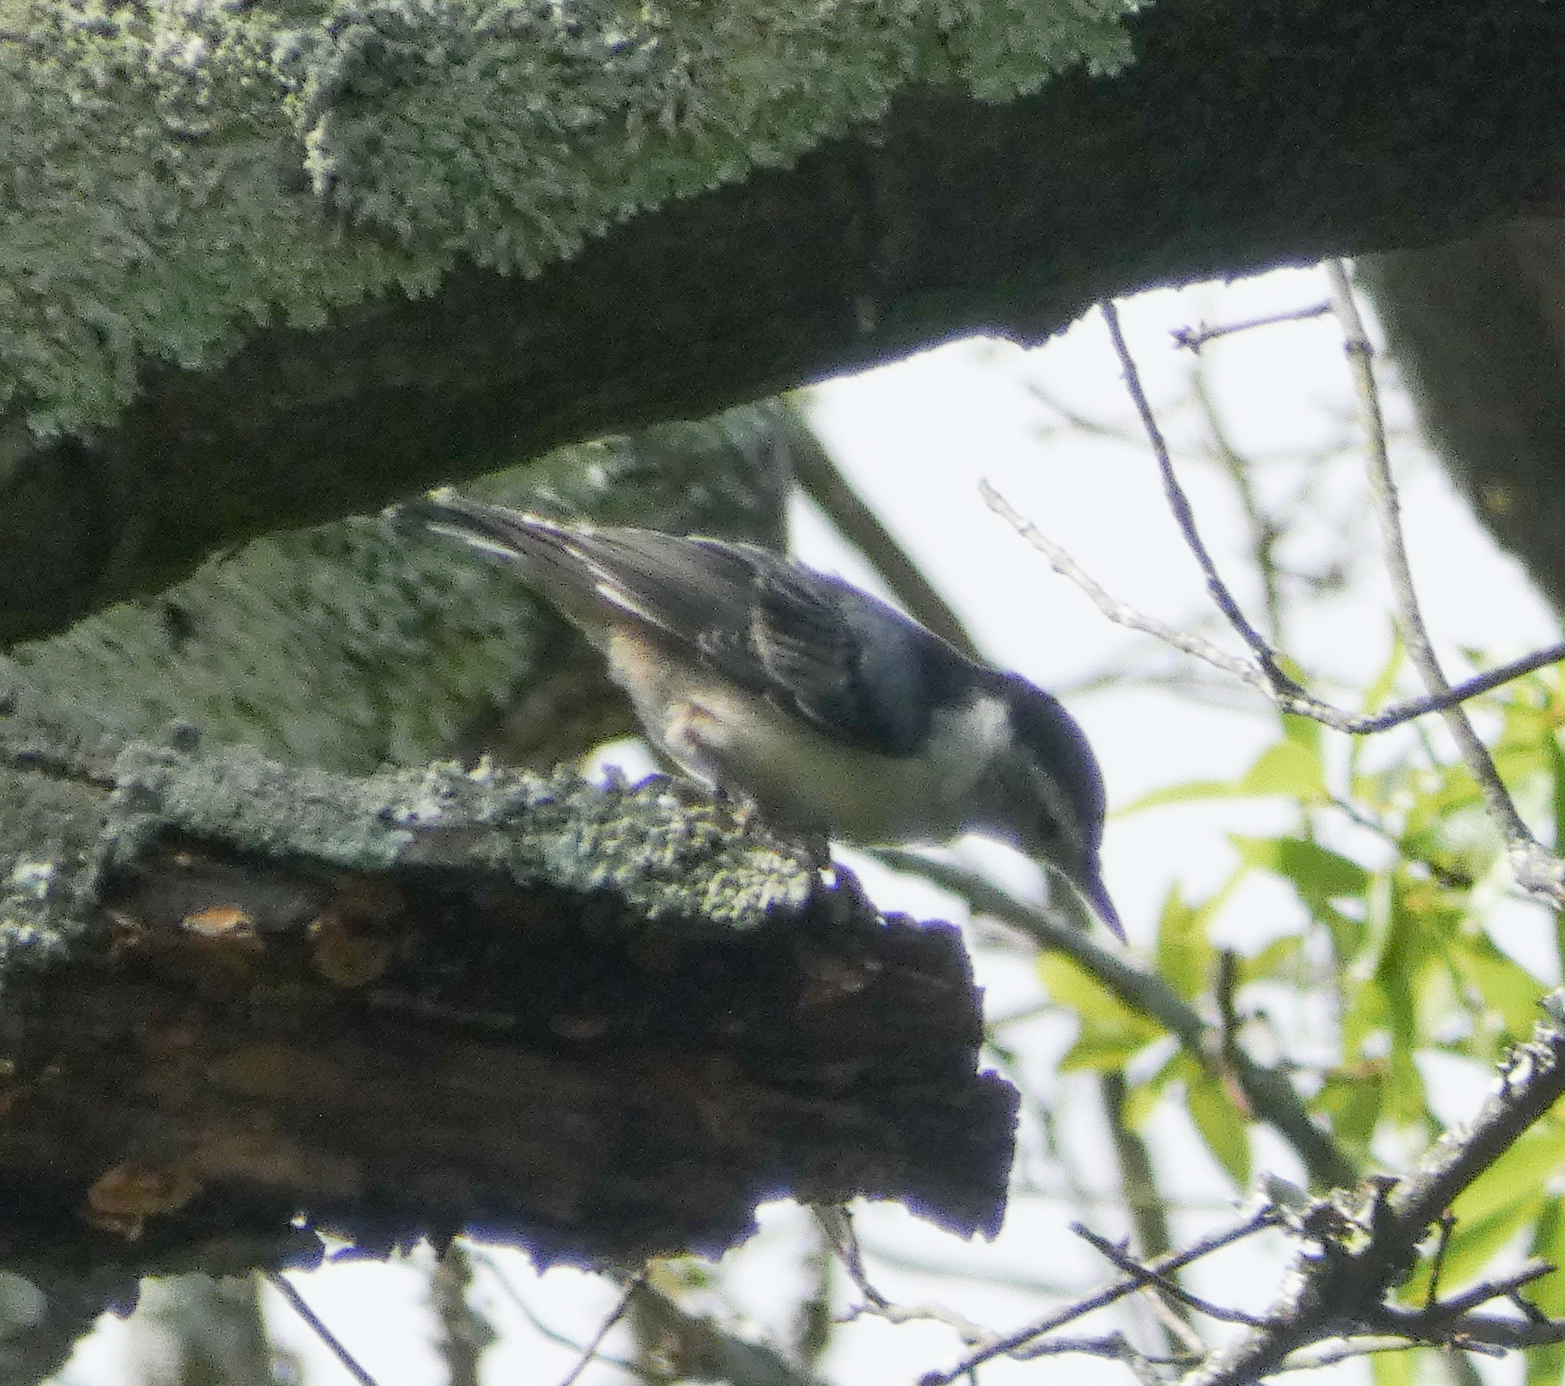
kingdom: Animalia
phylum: Chordata
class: Aves
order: Passeriformes
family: Sittidae
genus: Sitta
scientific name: Sitta carolinensis
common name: White-breasted nuthatch
